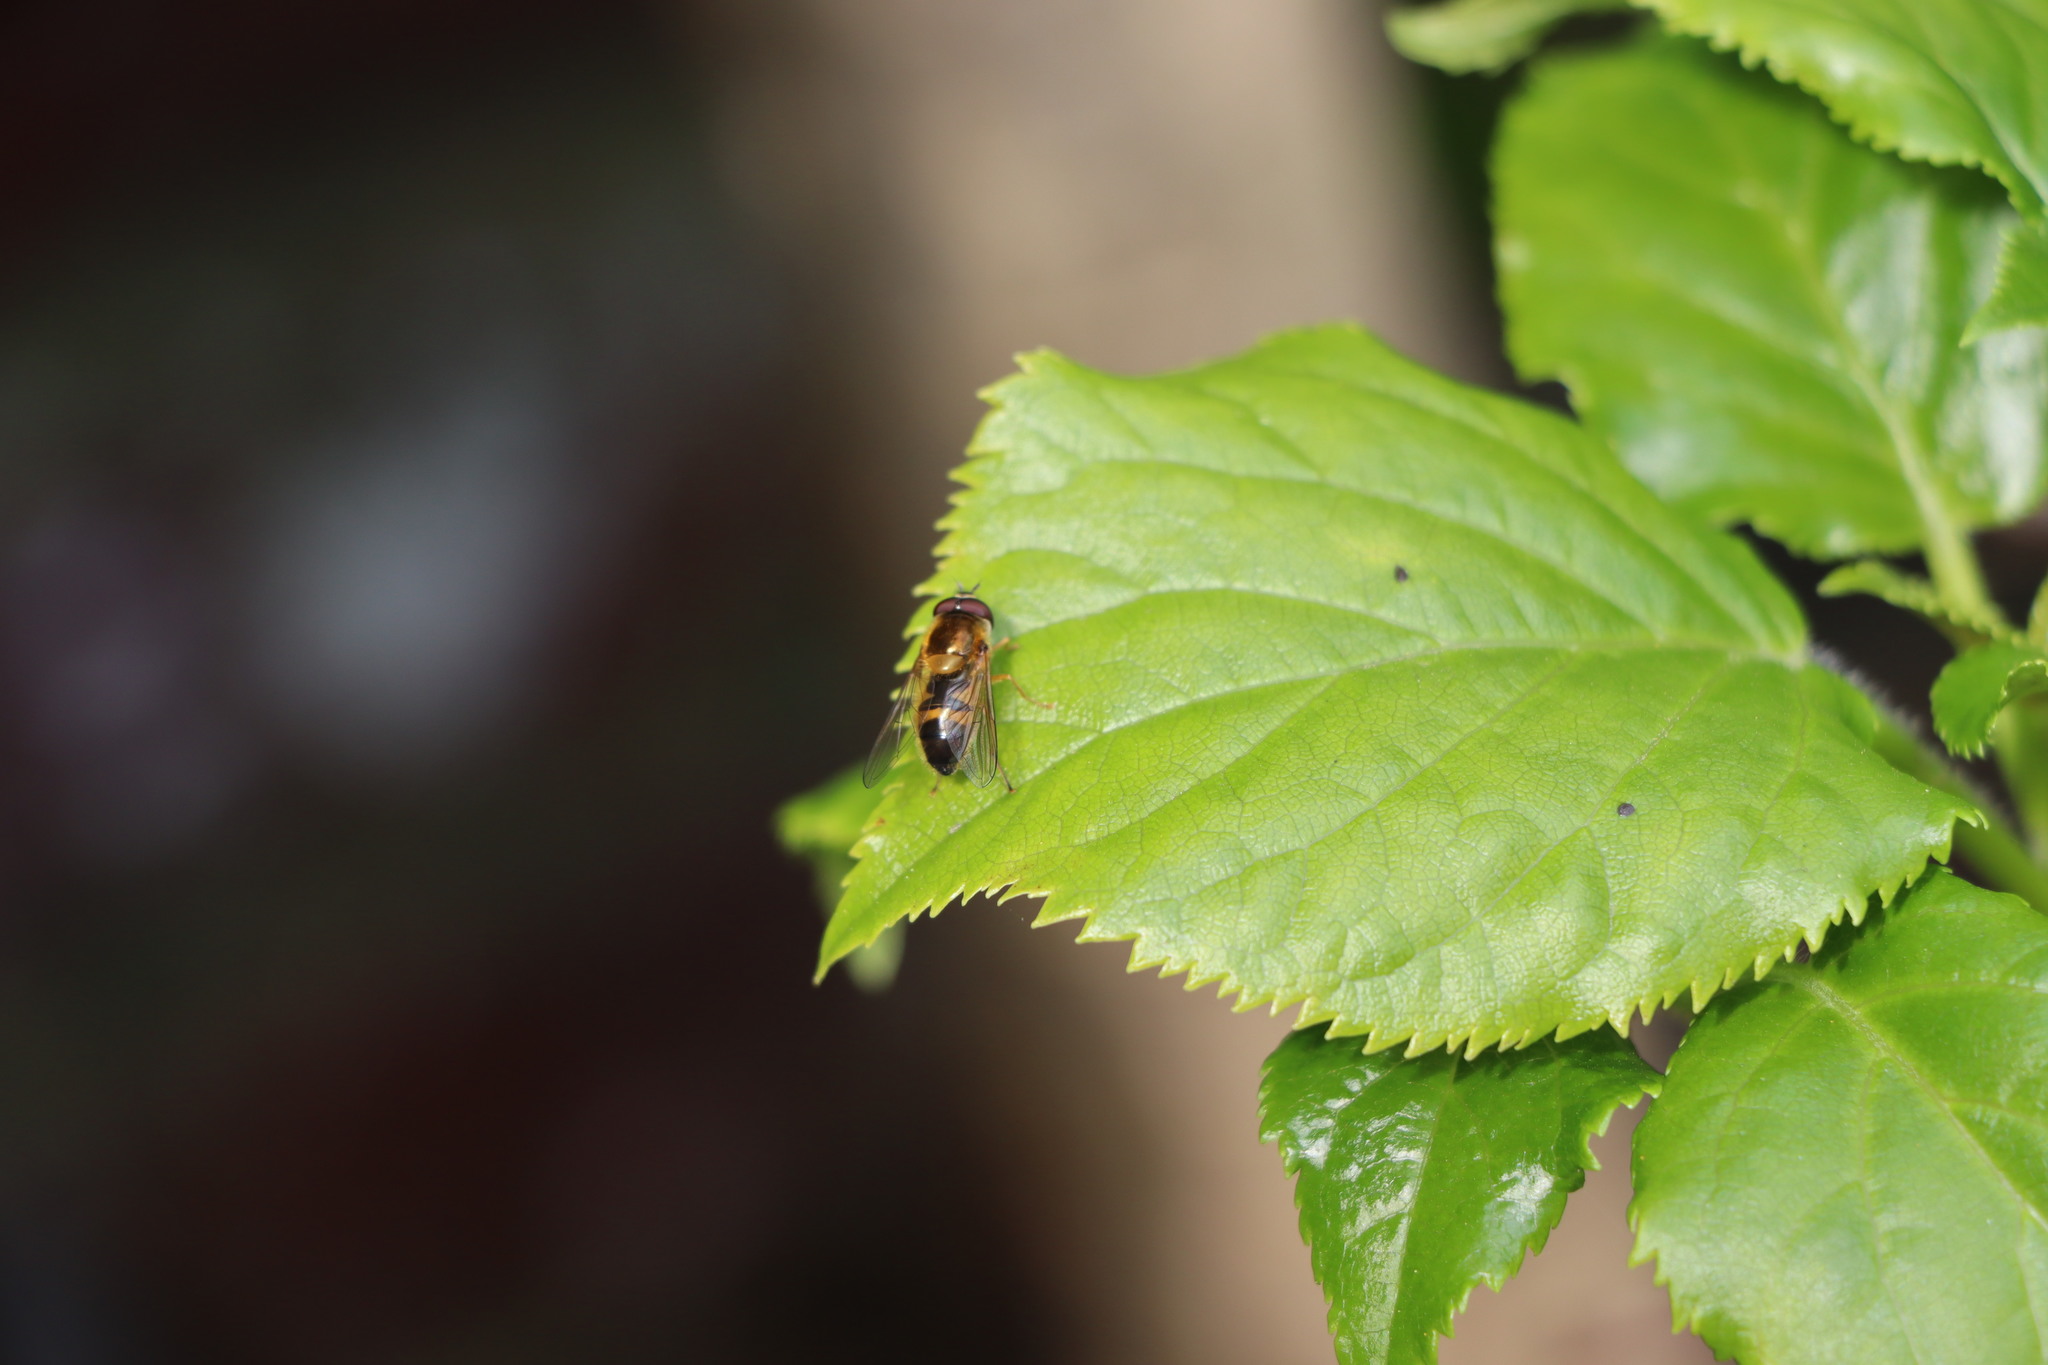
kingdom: Animalia
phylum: Arthropoda
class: Insecta
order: Diptera
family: Syrphidae
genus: Epistrophe
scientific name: Epistrophe eligans
